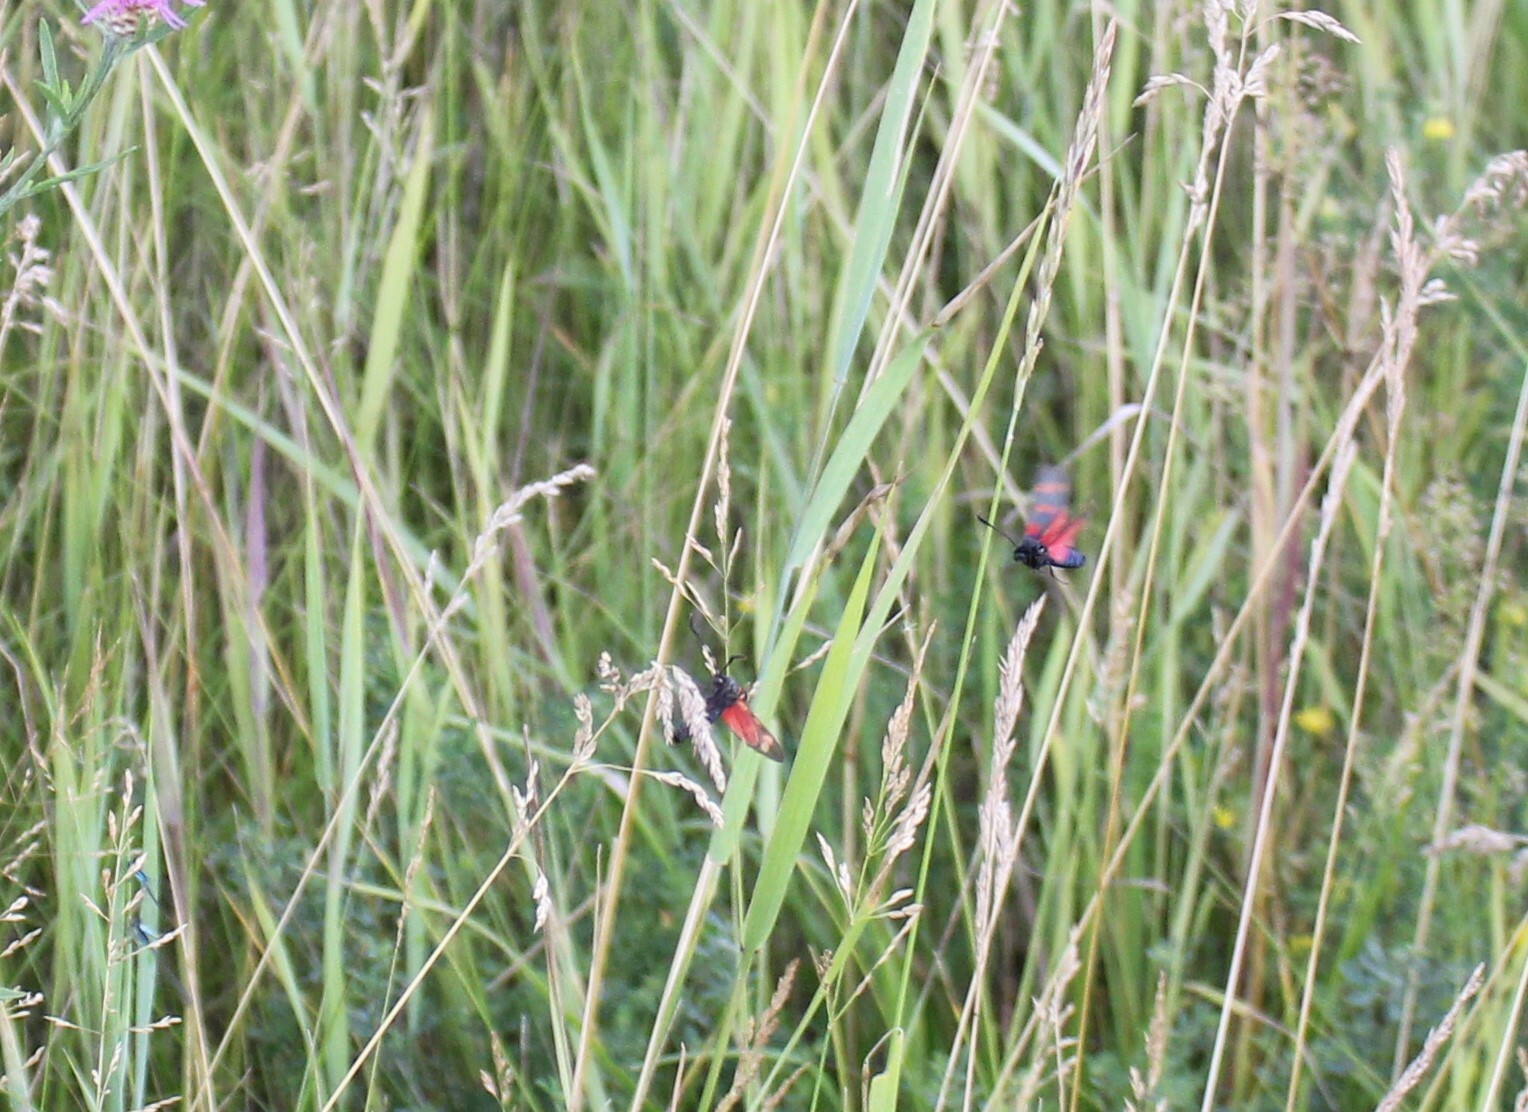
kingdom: Animalia
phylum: Arthropoda
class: Insecta
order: Lepidoptera
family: Zygaenidae
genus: Zygaena
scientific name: Zygaena filipendulae
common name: Six-spot burnet
